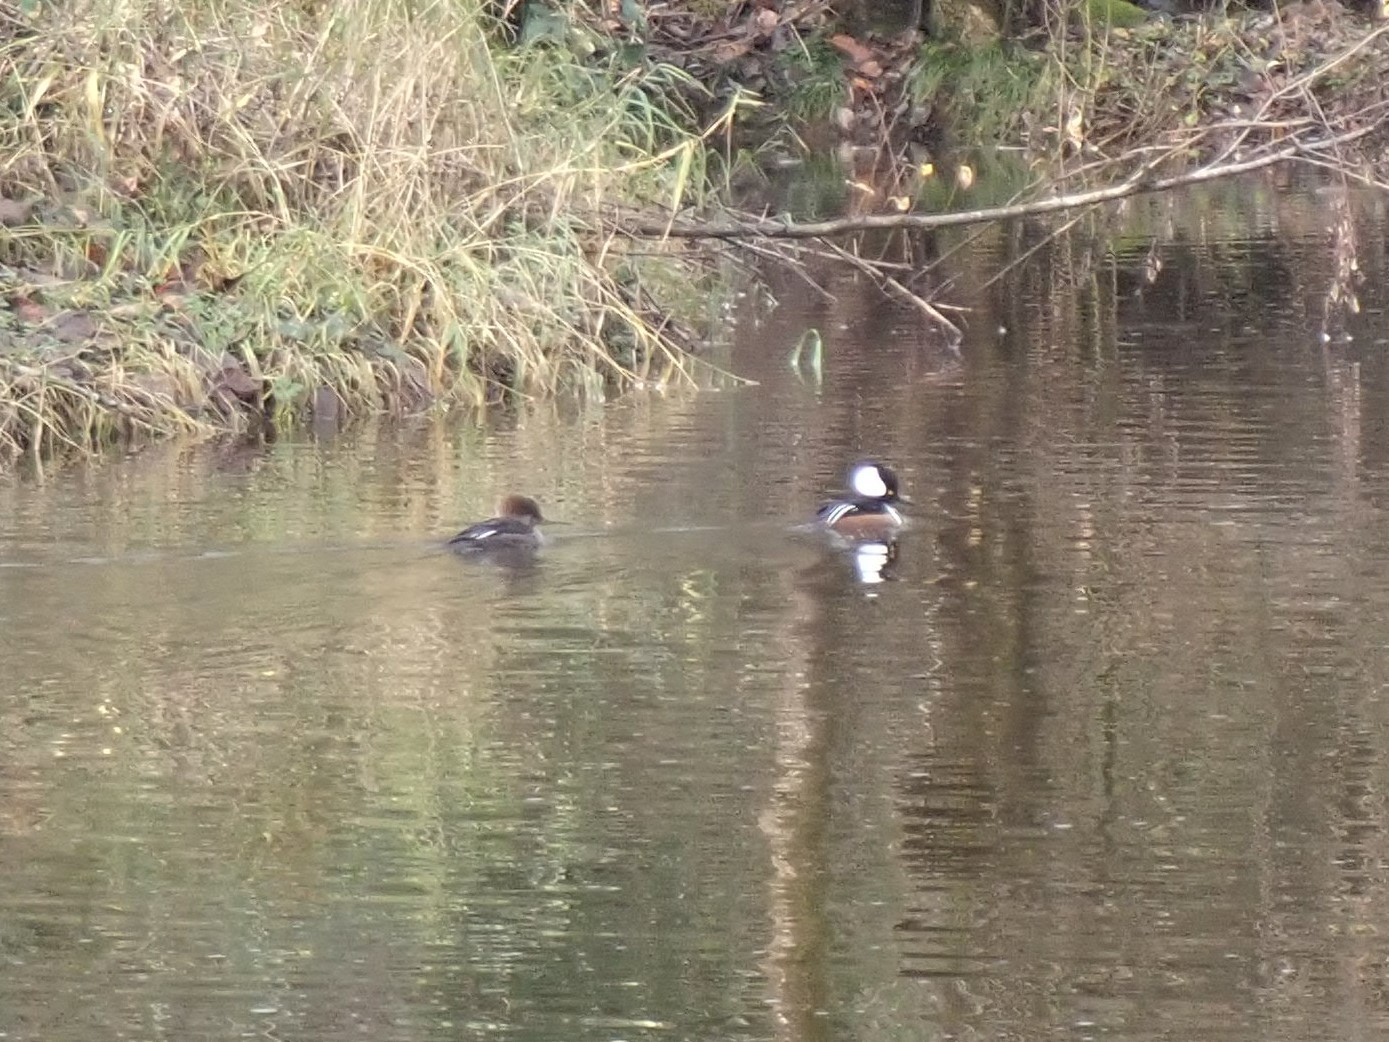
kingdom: Animalia
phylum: Chordata
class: Aves
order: Anseriformes
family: Anatidae
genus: Lophodytes
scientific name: Lophodytes cucullatus
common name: Hooded merganser
